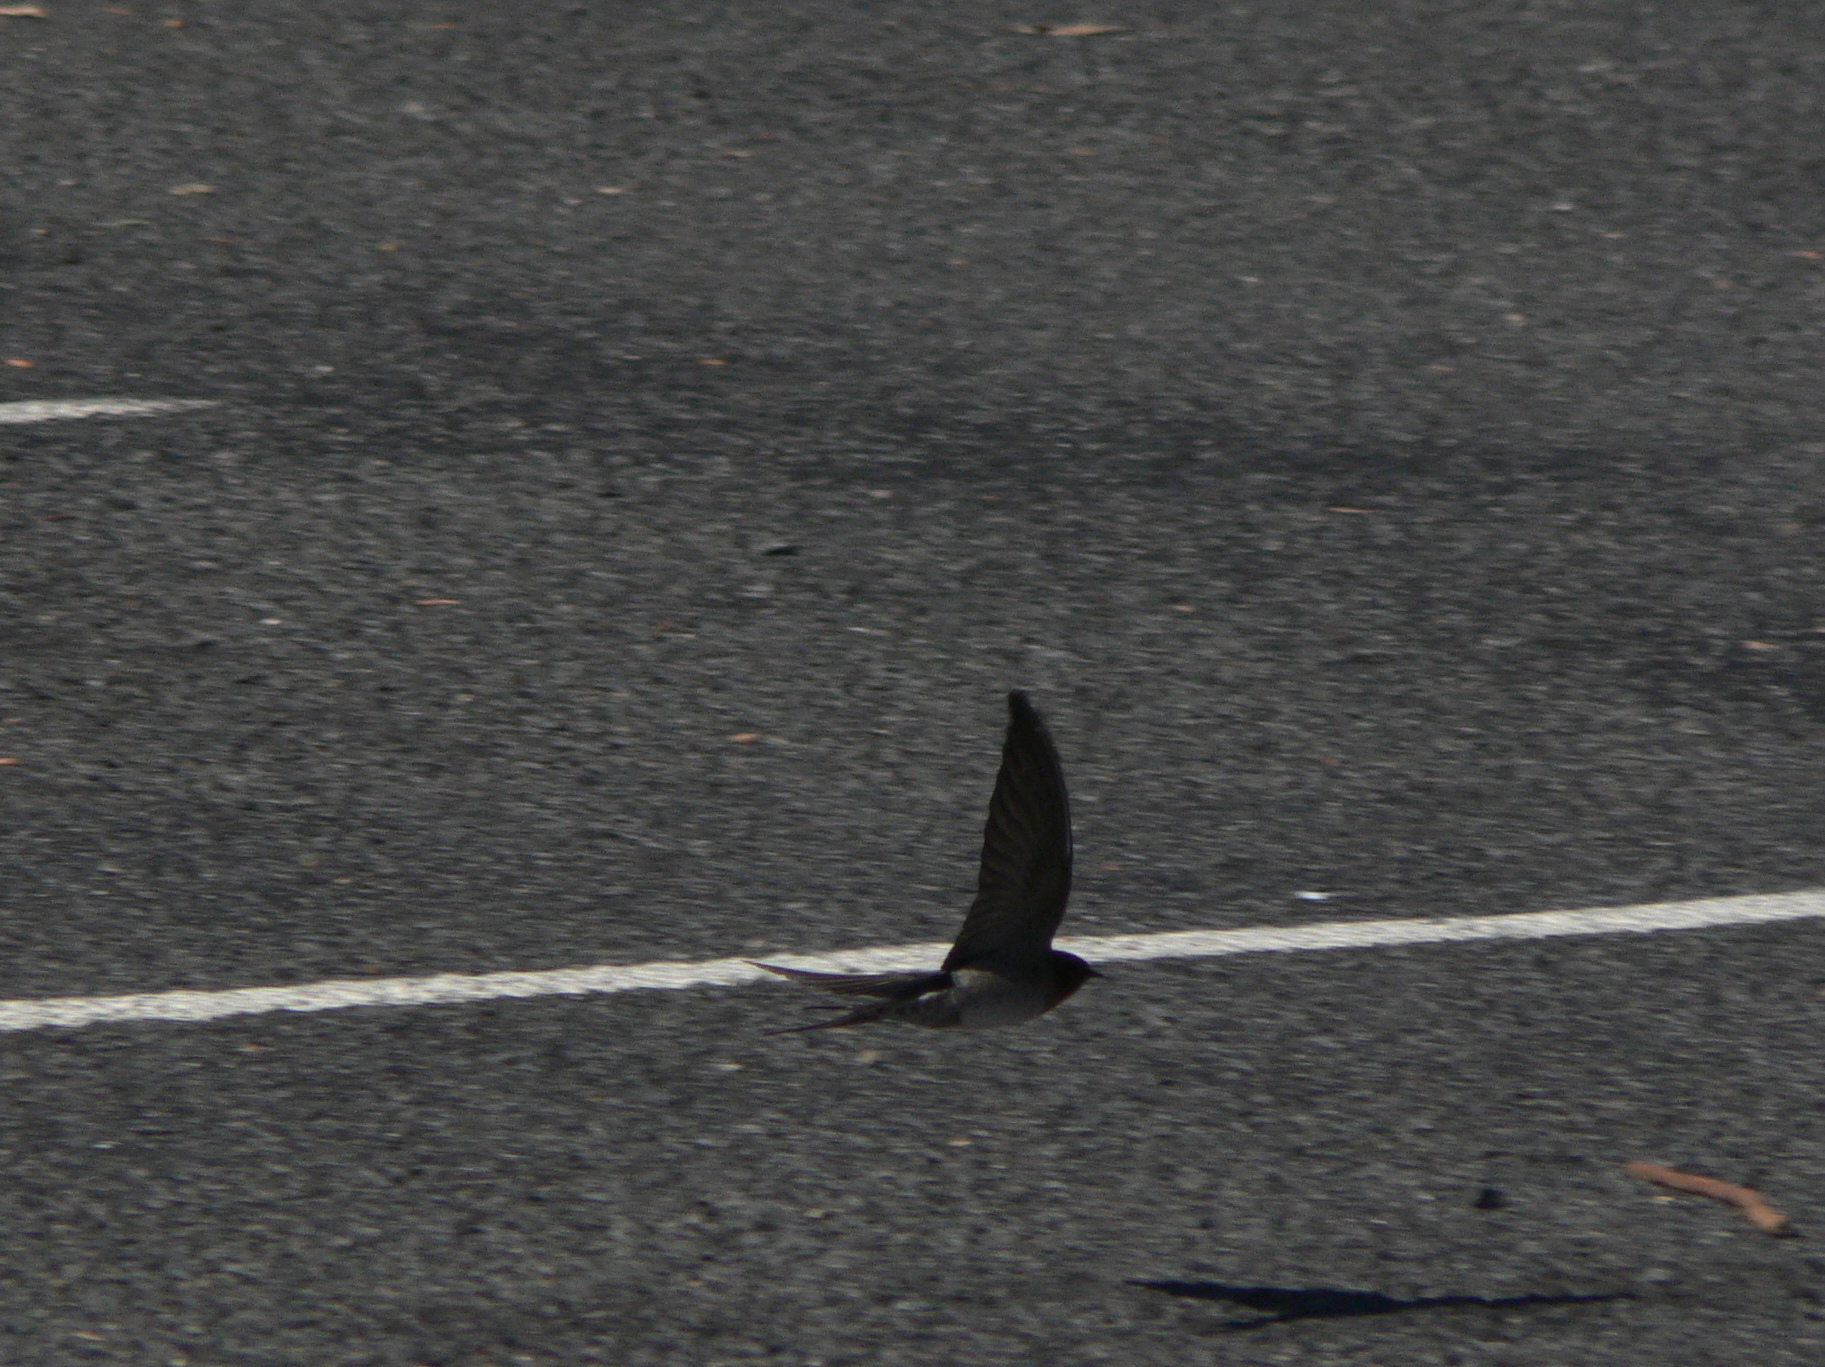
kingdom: Animalia
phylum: Chordata
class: Aves
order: Passeriformes
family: Hirundinidae
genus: Hirundo
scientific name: Hirundo neoxena
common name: Welcome swallow
